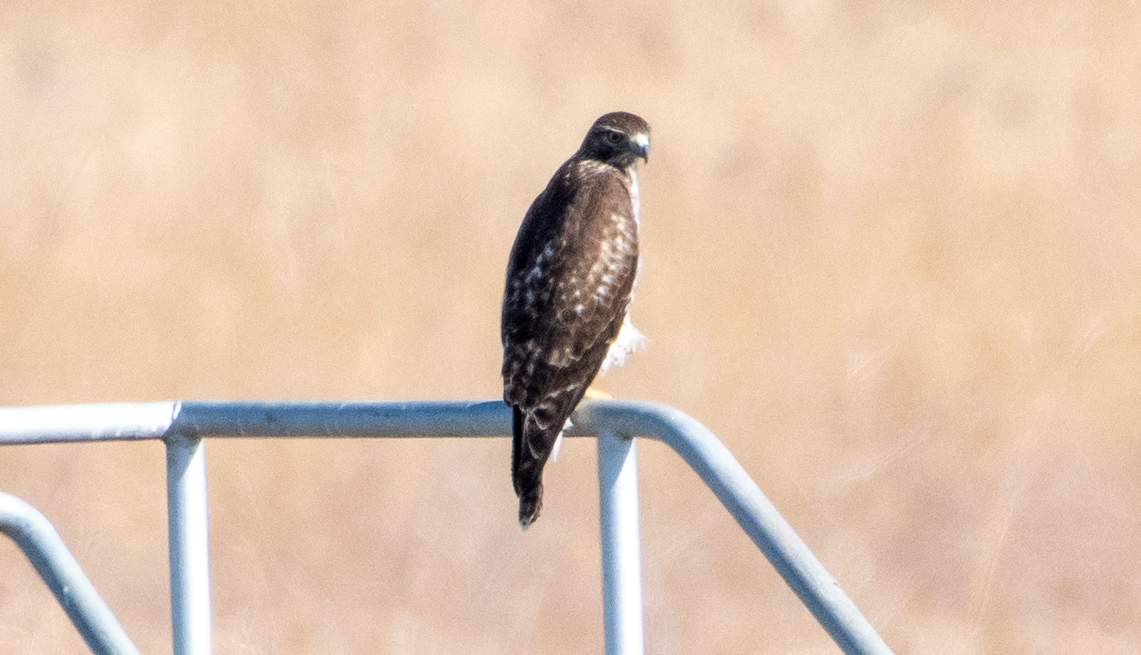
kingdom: Animalia
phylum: Chordata
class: Aves
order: Accipitriformes
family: Accipitridae
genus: Buteo
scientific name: Buteo jamaicensis
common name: Red-tailed hawk
